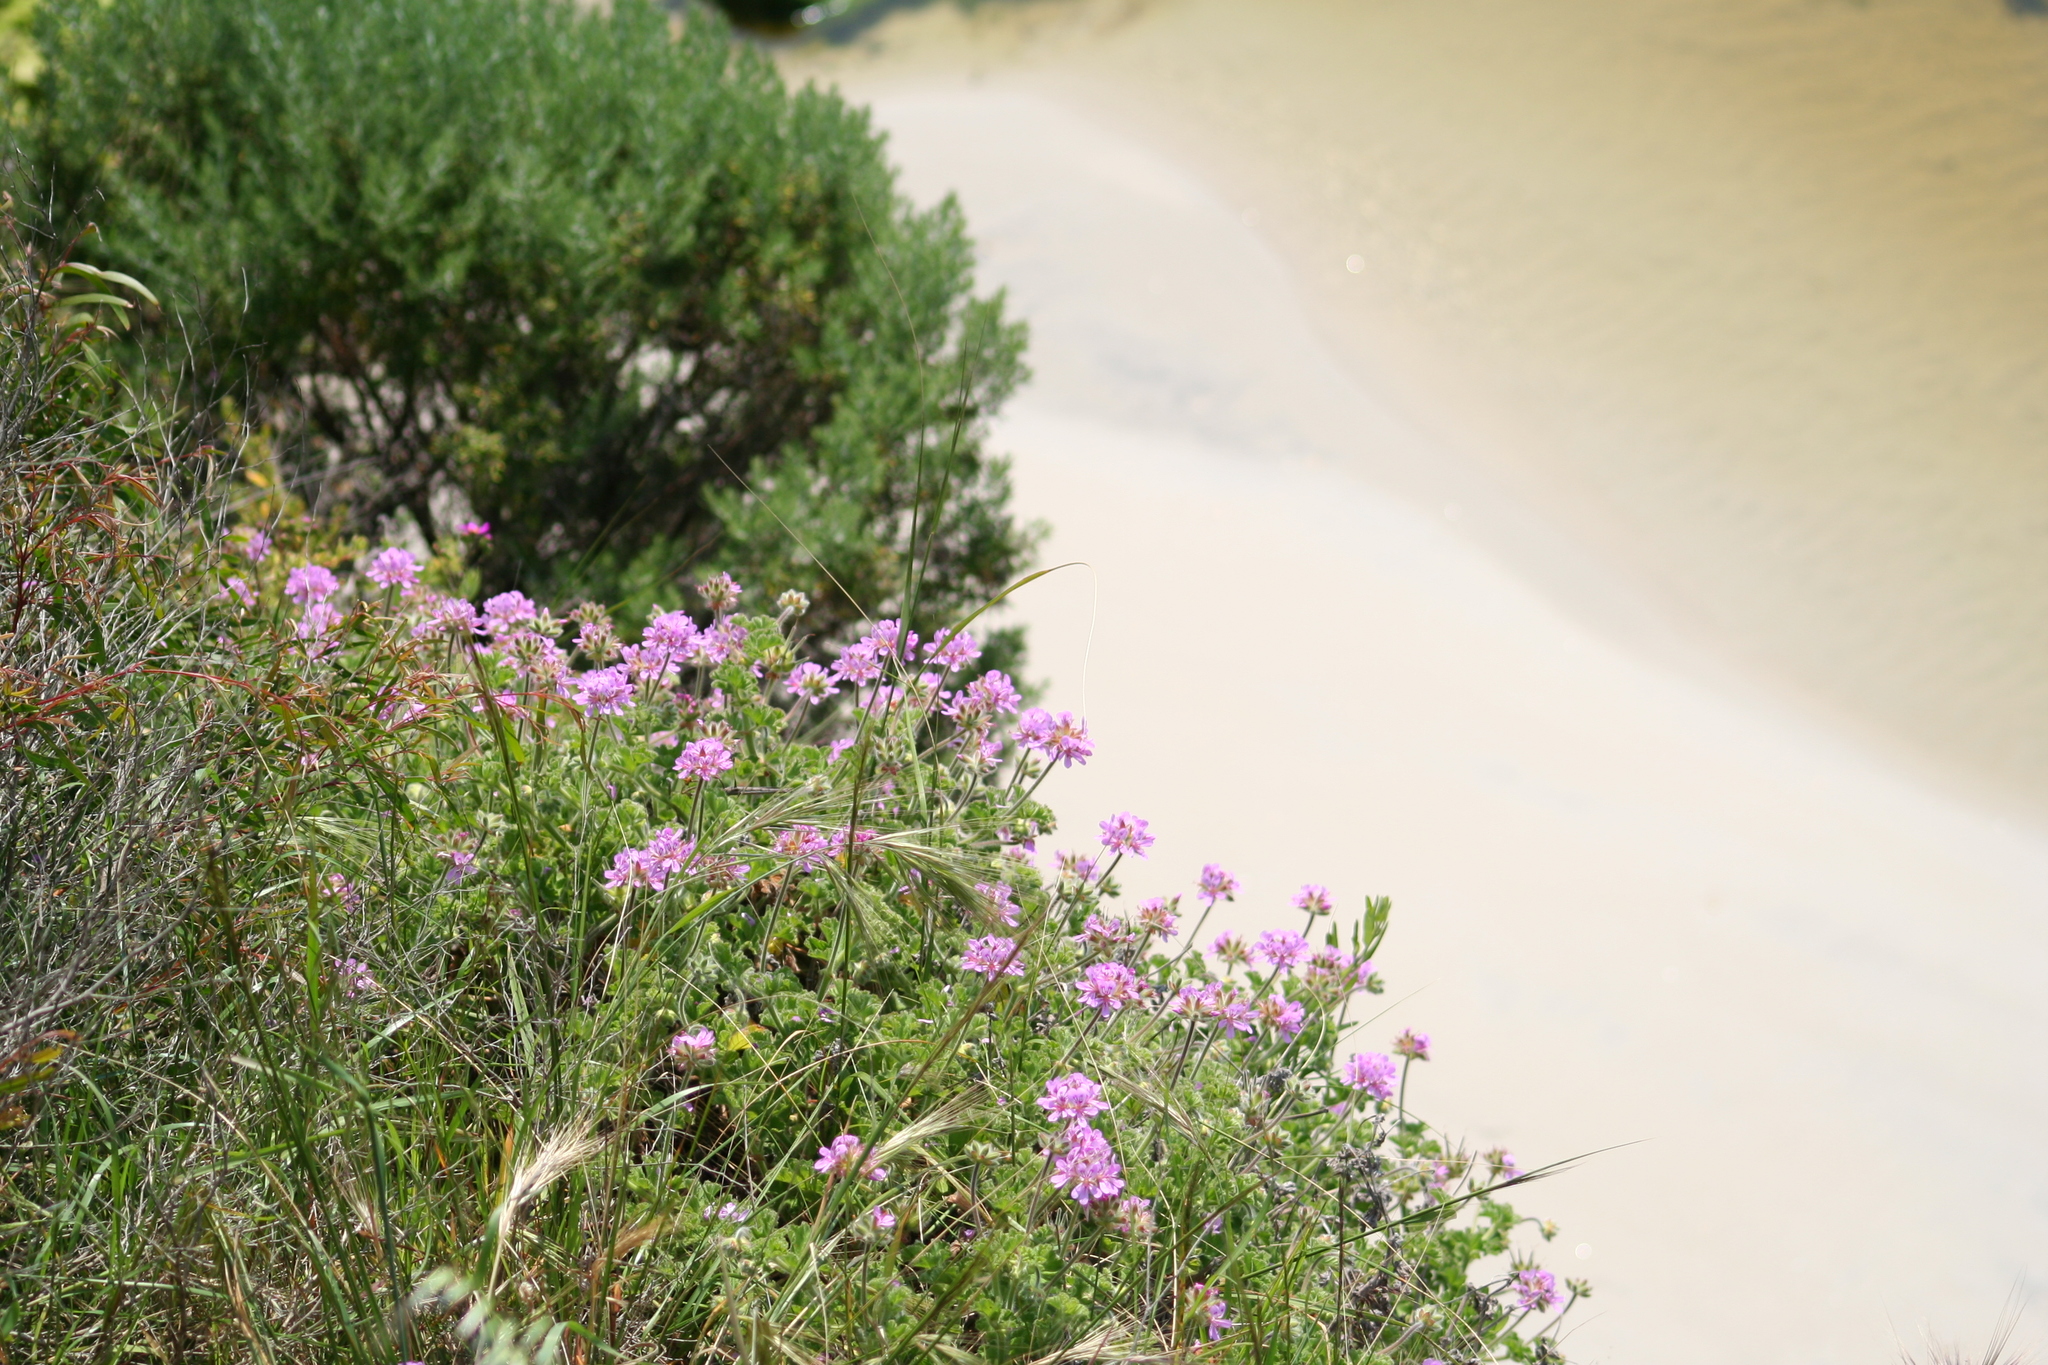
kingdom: Plantae
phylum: Tracheophyta
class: Magnoliopsida
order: Geraniales
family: Geraniaceae
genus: Pelargonium
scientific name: Pelargonium capitatum
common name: Rose scented geranium
